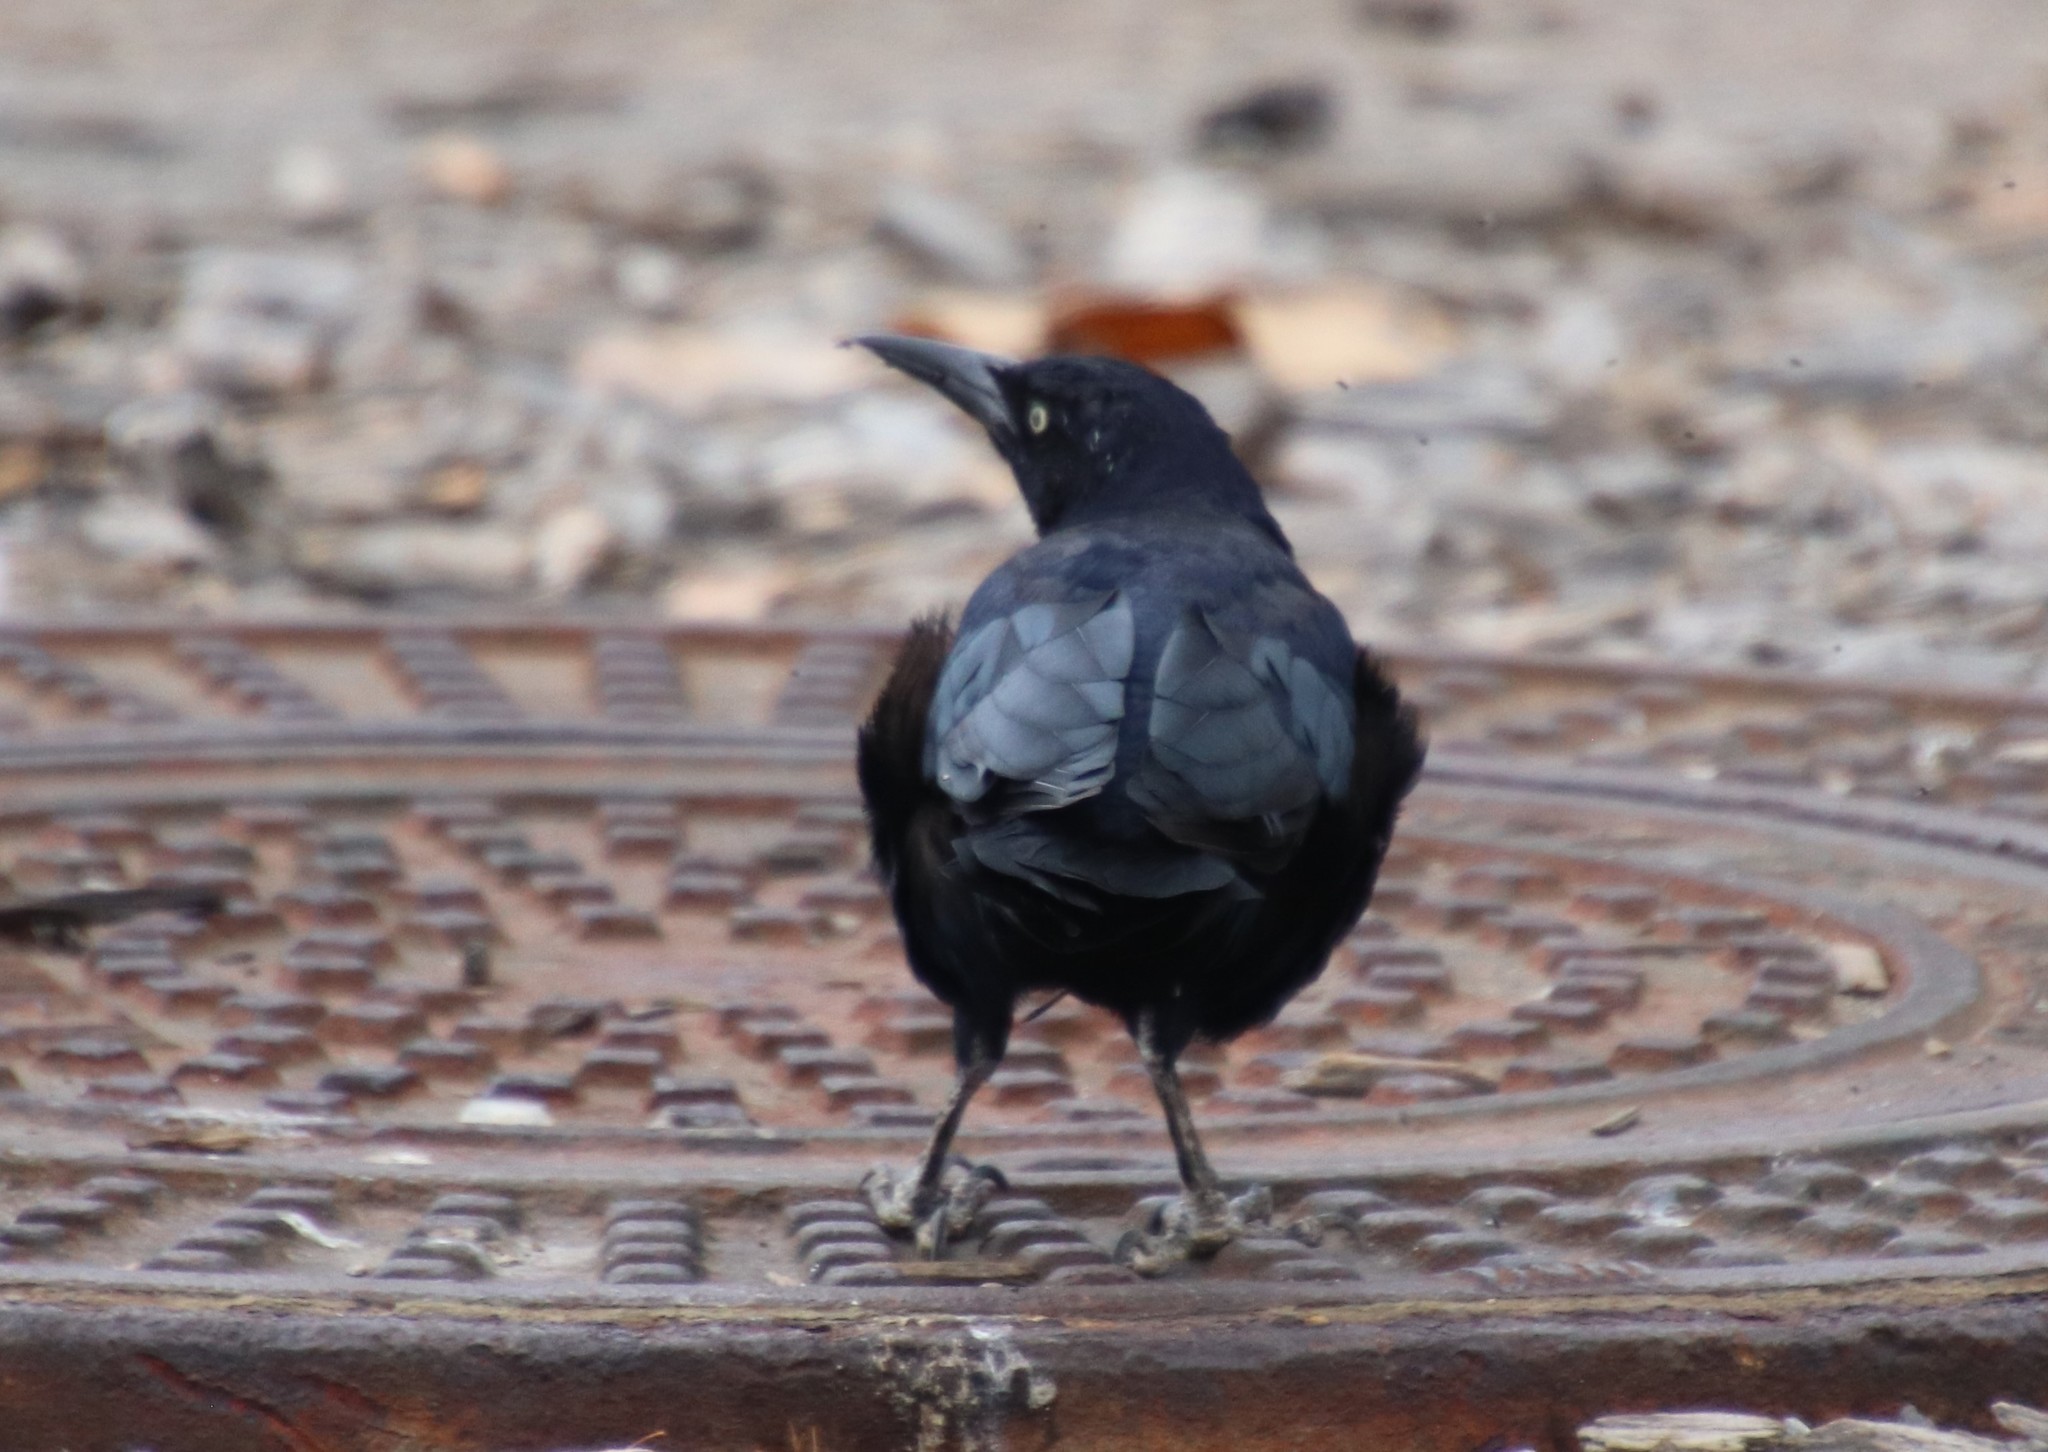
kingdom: Animalia
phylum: Chordata
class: Aves
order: Passeriformes
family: Icteridae
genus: Quiscalus
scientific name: Quiscalus mexicanus
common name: Great-tailed grackle
